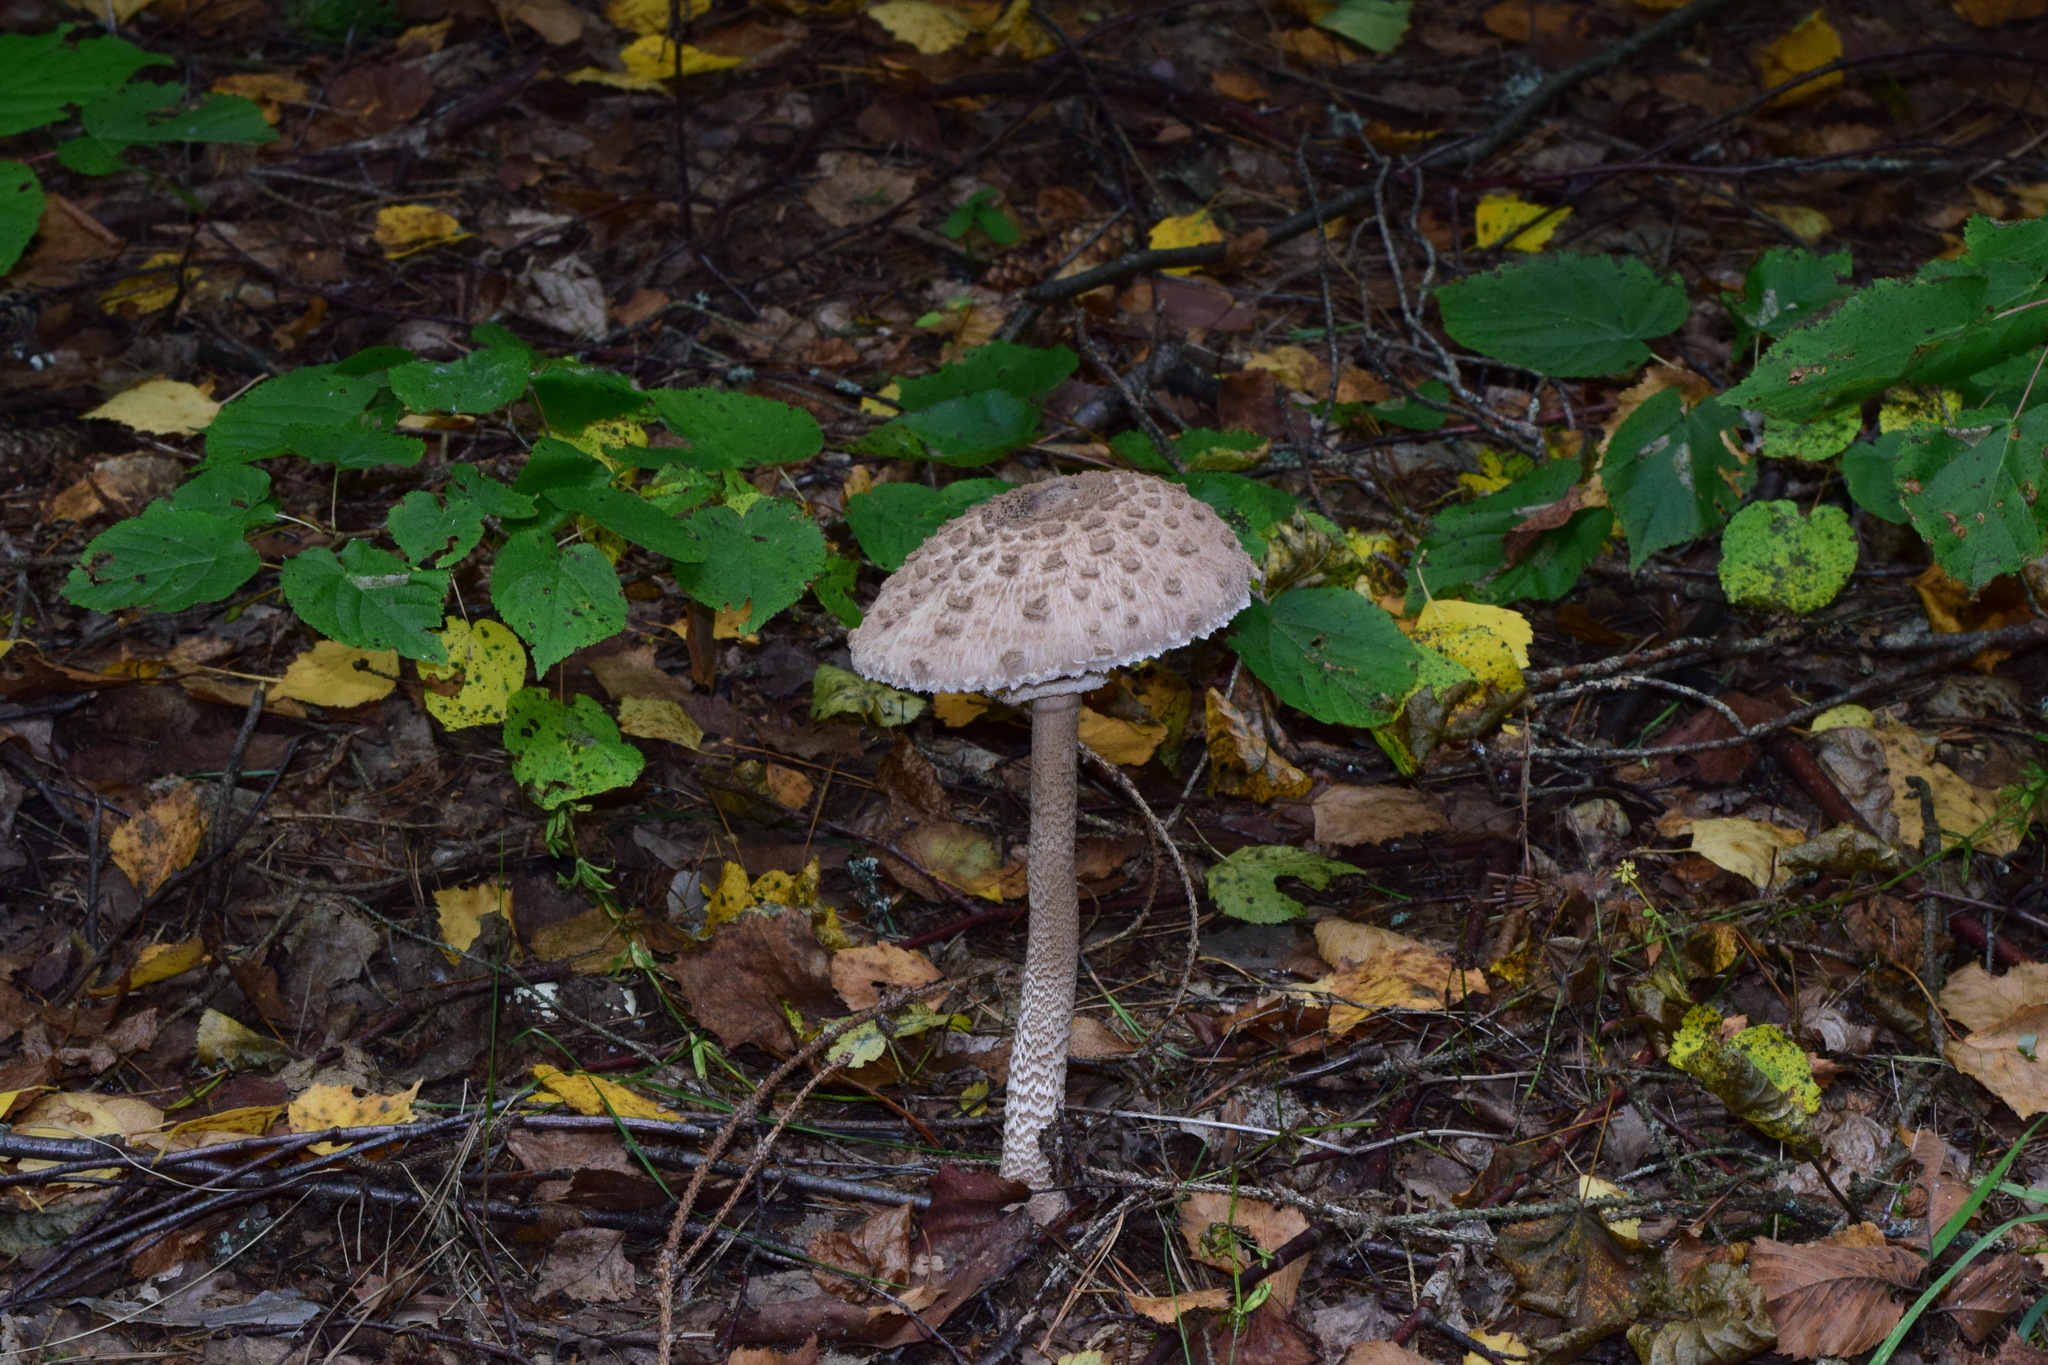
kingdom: Fungi
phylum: Basidiomycota
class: Agaricomycetes
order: Agaricales
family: Agaricaceae
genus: Macrolepiota
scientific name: Macrolepiota procera
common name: Parasol
